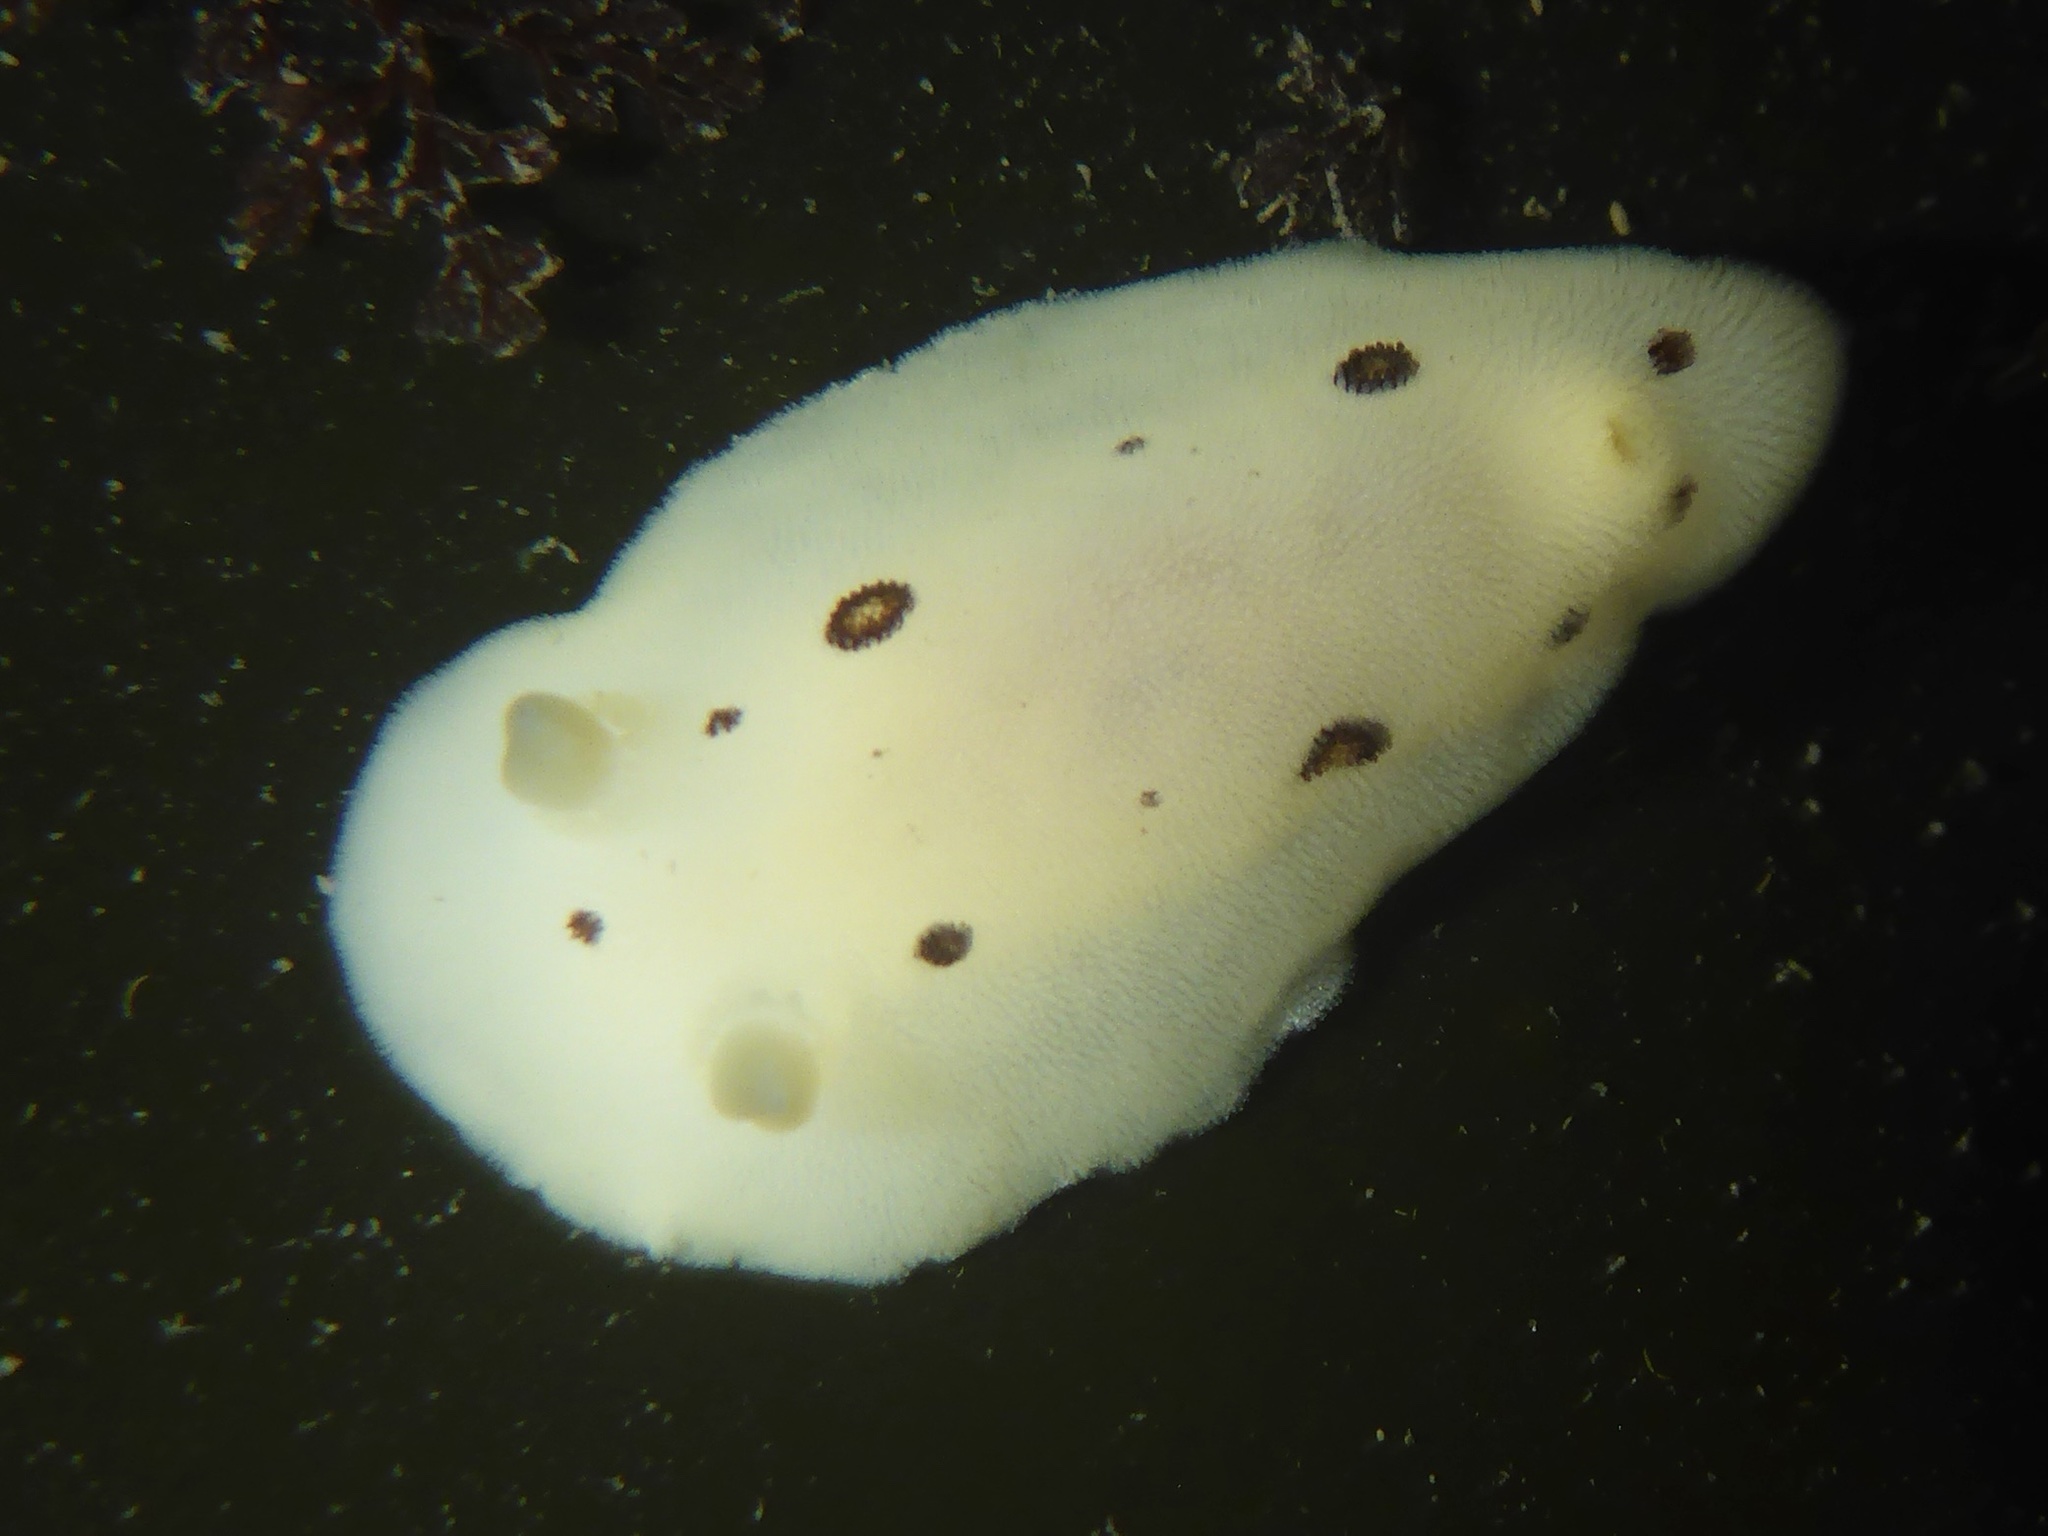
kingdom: Animalia
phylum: Mollusca
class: Gastropoda
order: Nudibranchia
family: Discodorididae
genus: Diaulula
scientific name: Diaulula sandiegensis
